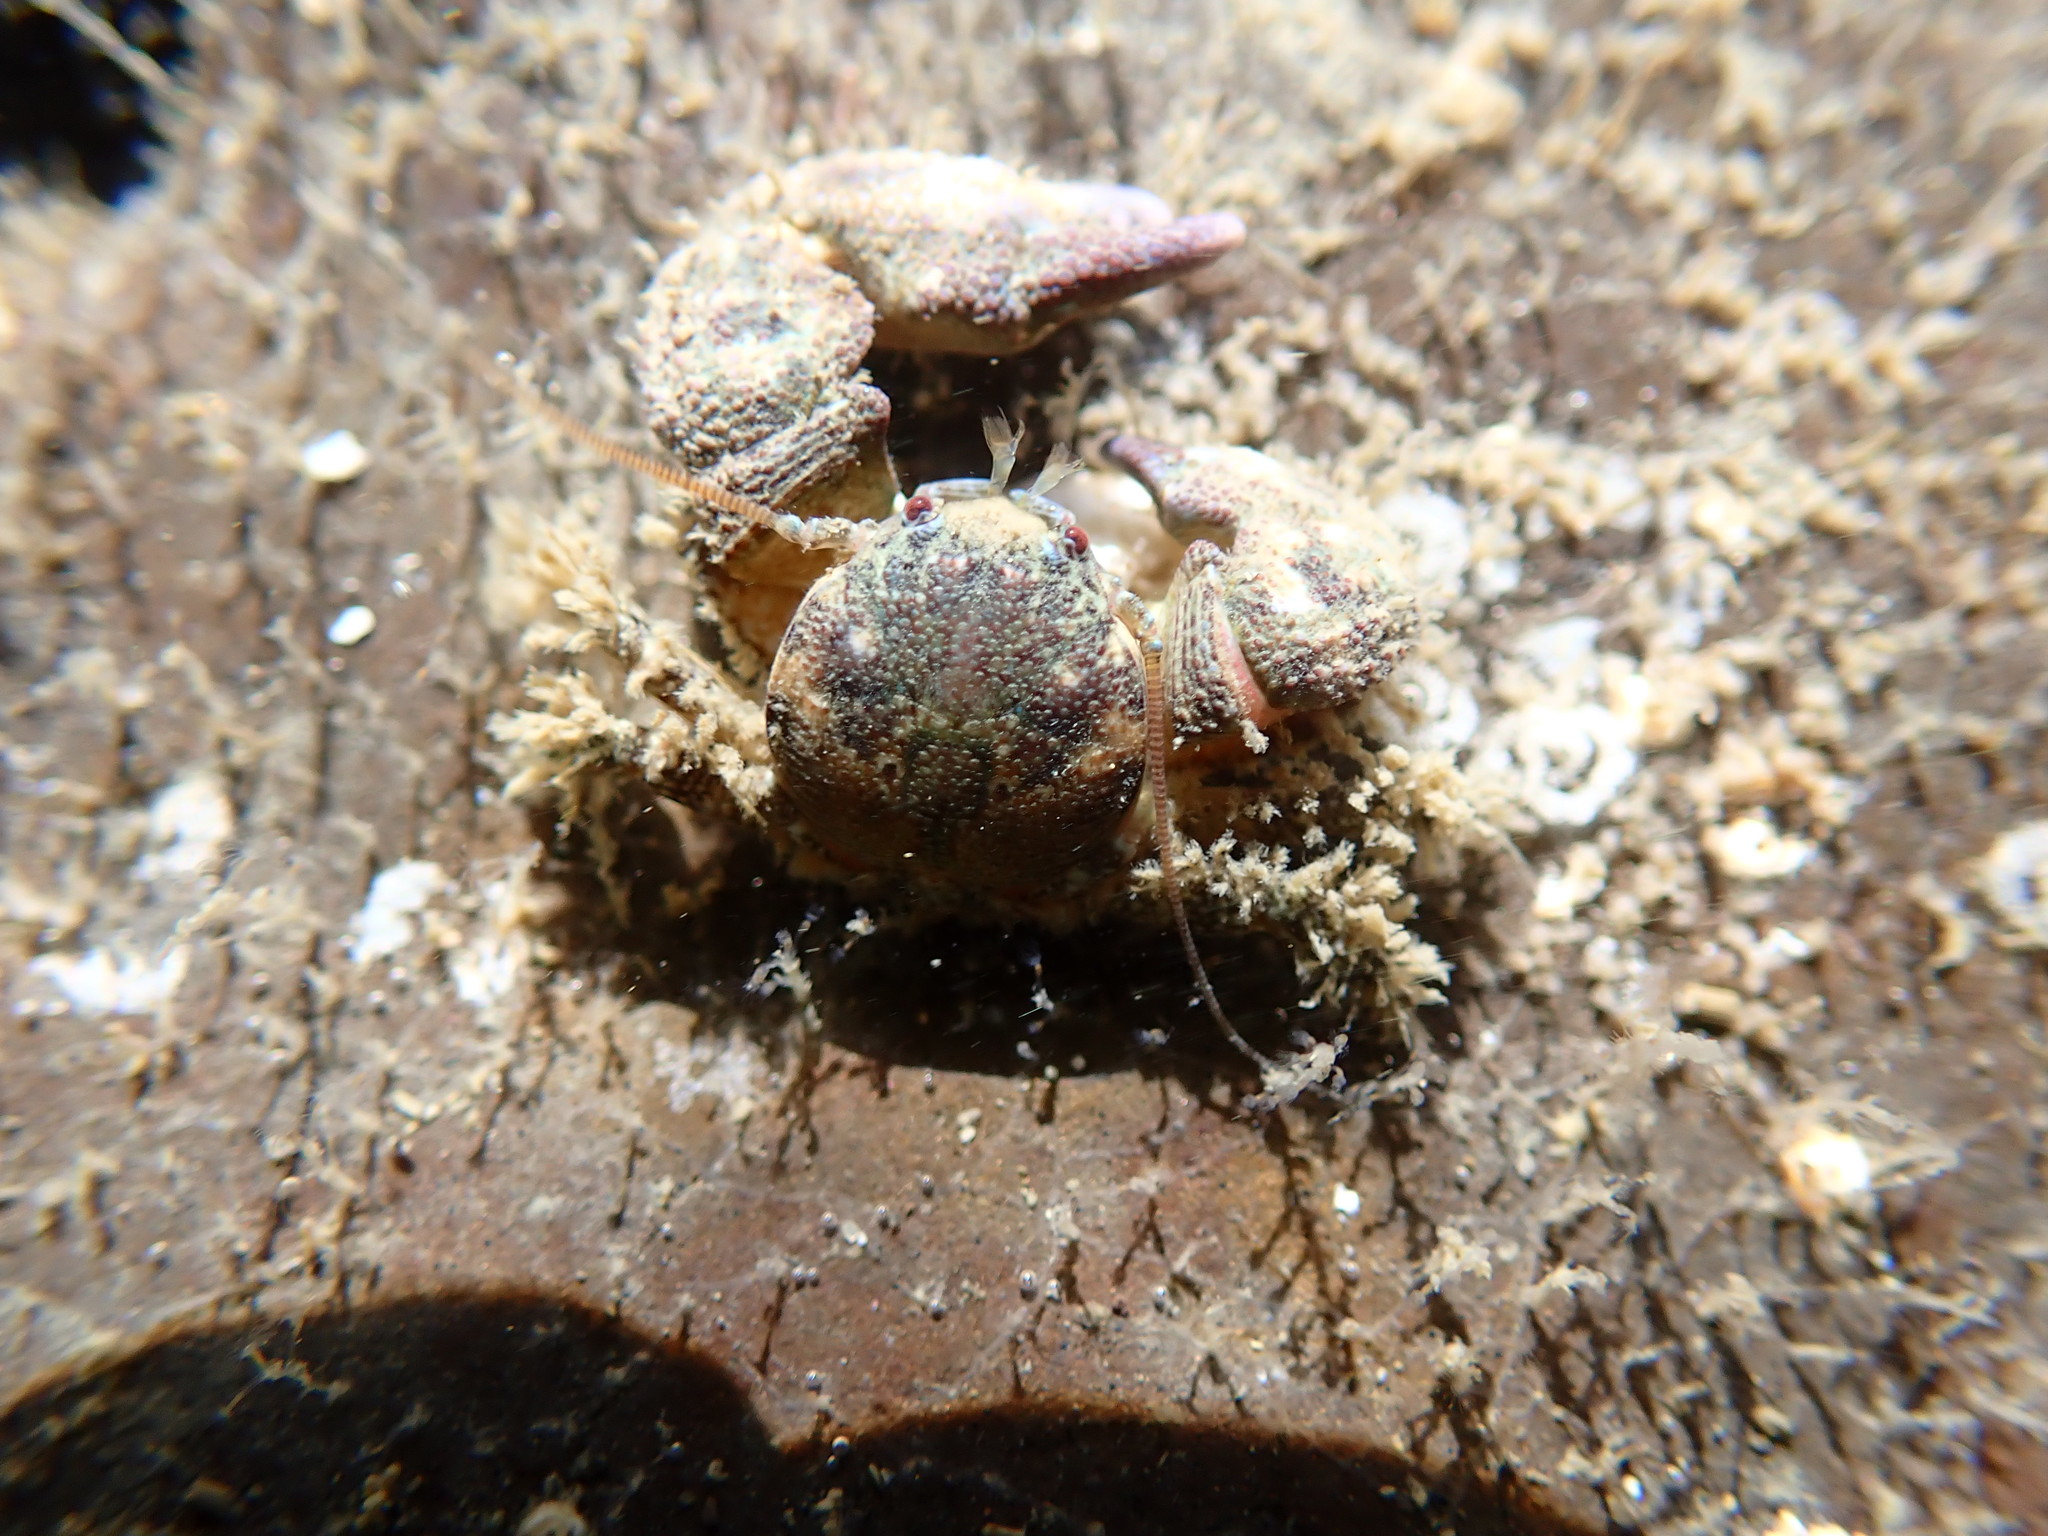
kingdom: Animalia
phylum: Arthropoda
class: Malacostraca
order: Decapoda
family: Porcellanidae
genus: Pachycheles
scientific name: Pachycheles rudis
